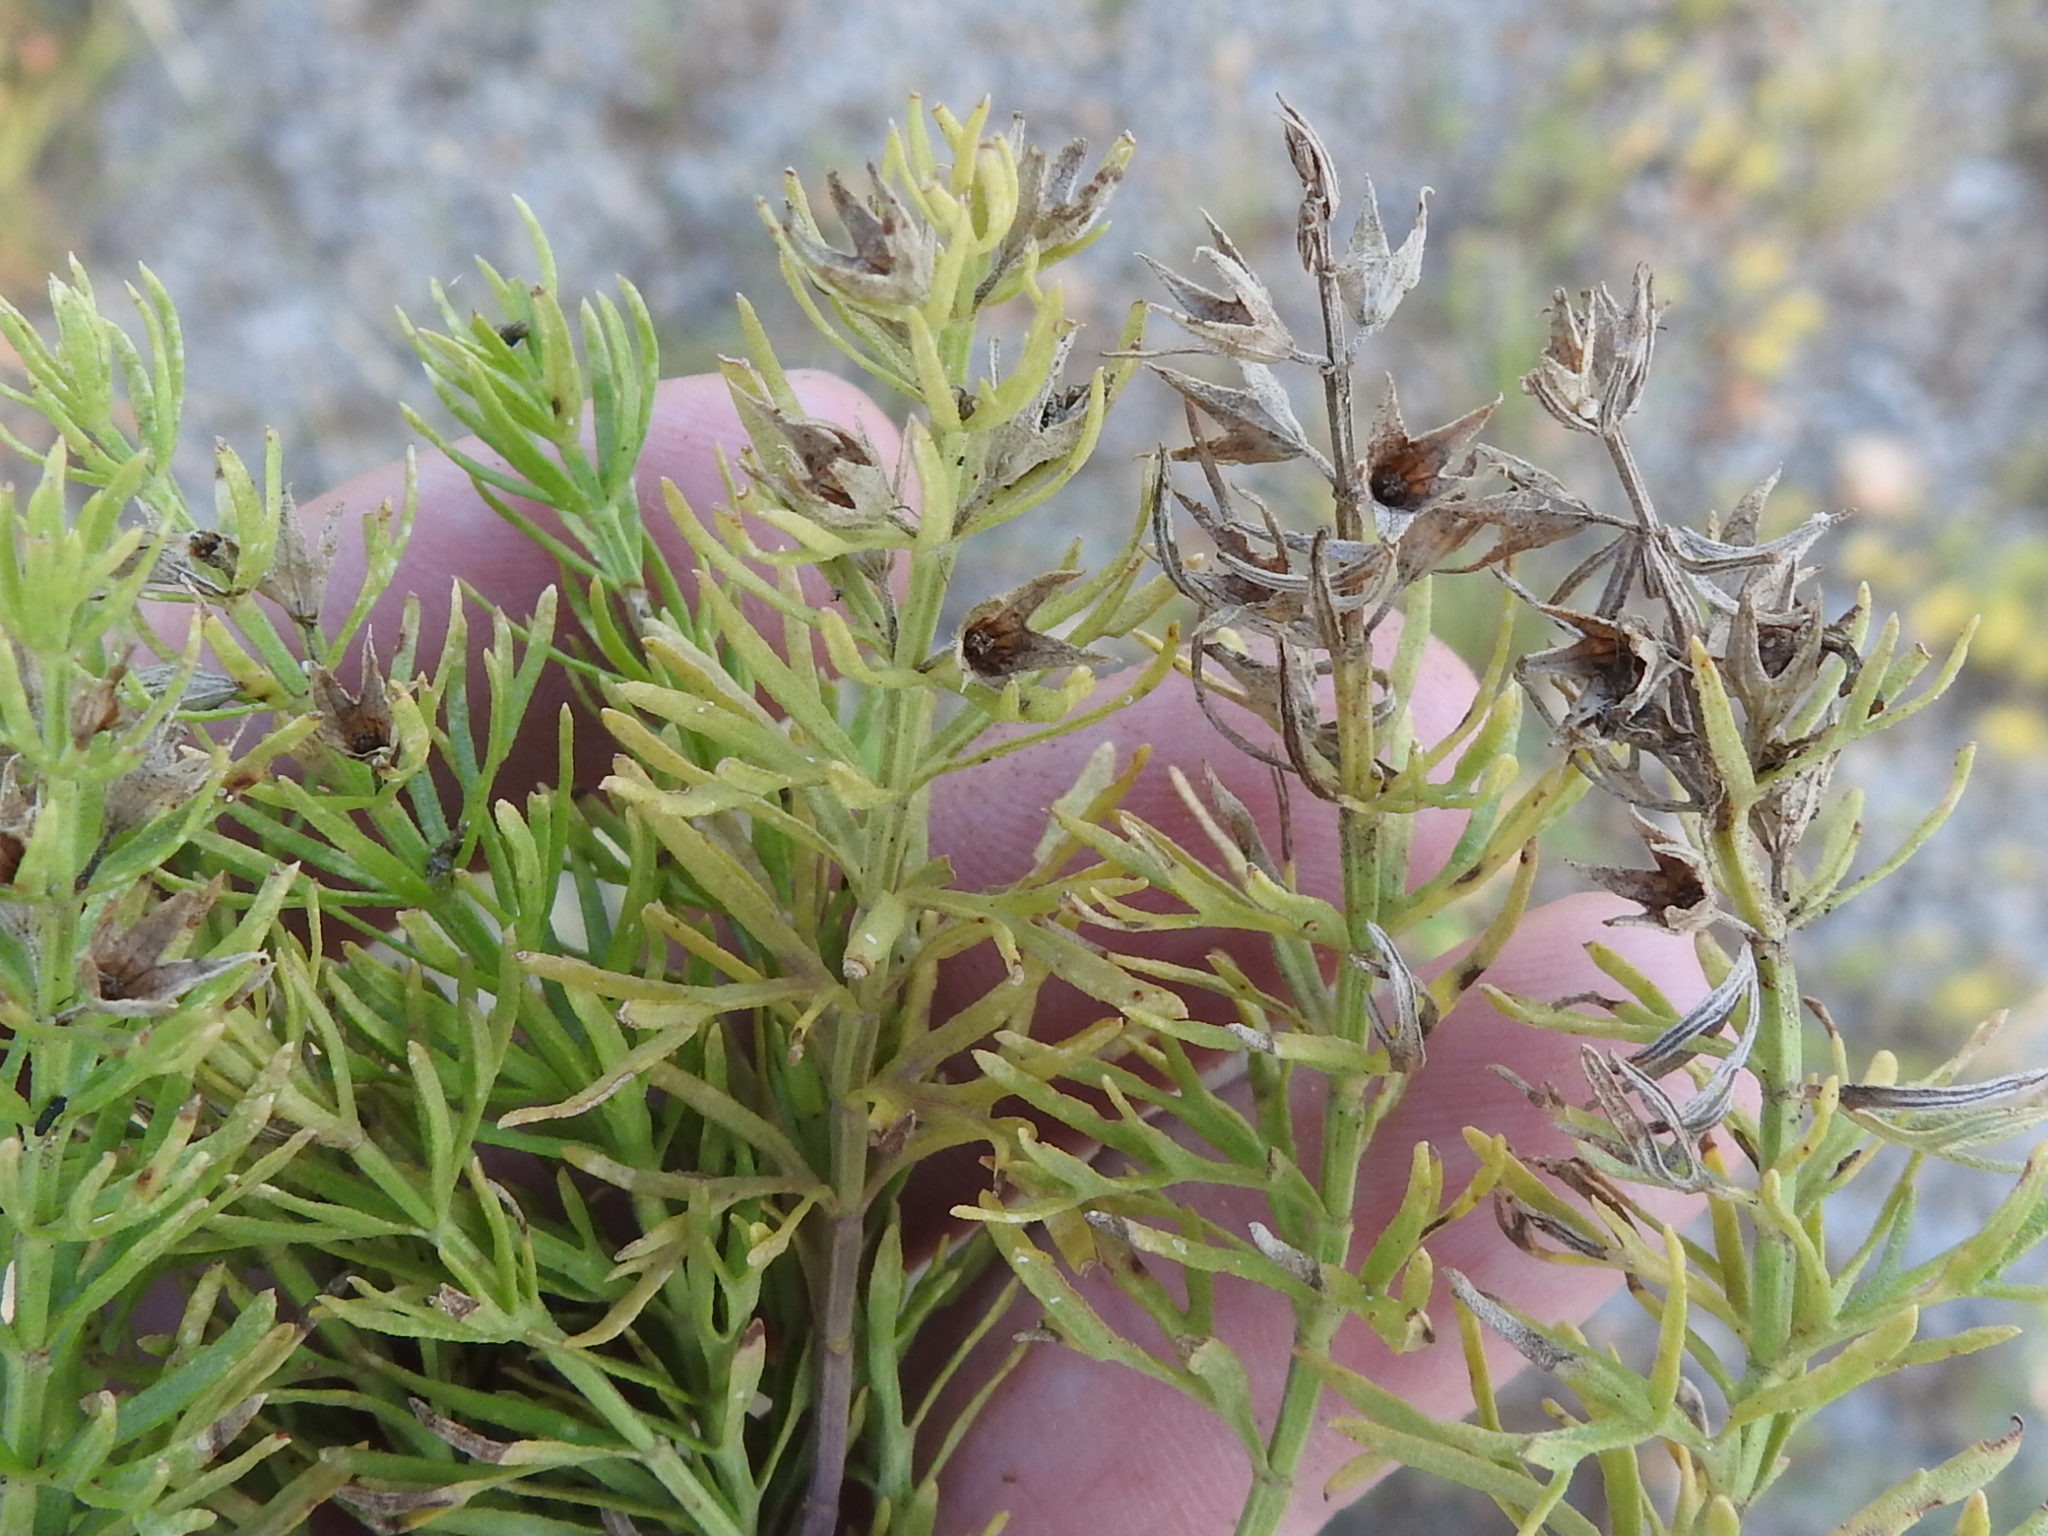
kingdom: Plantae
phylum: Tracheophyta
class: Magnoliopsida
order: Lamiales
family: Lamiaceae
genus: Teucrium
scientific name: Teucrium laciniatum
